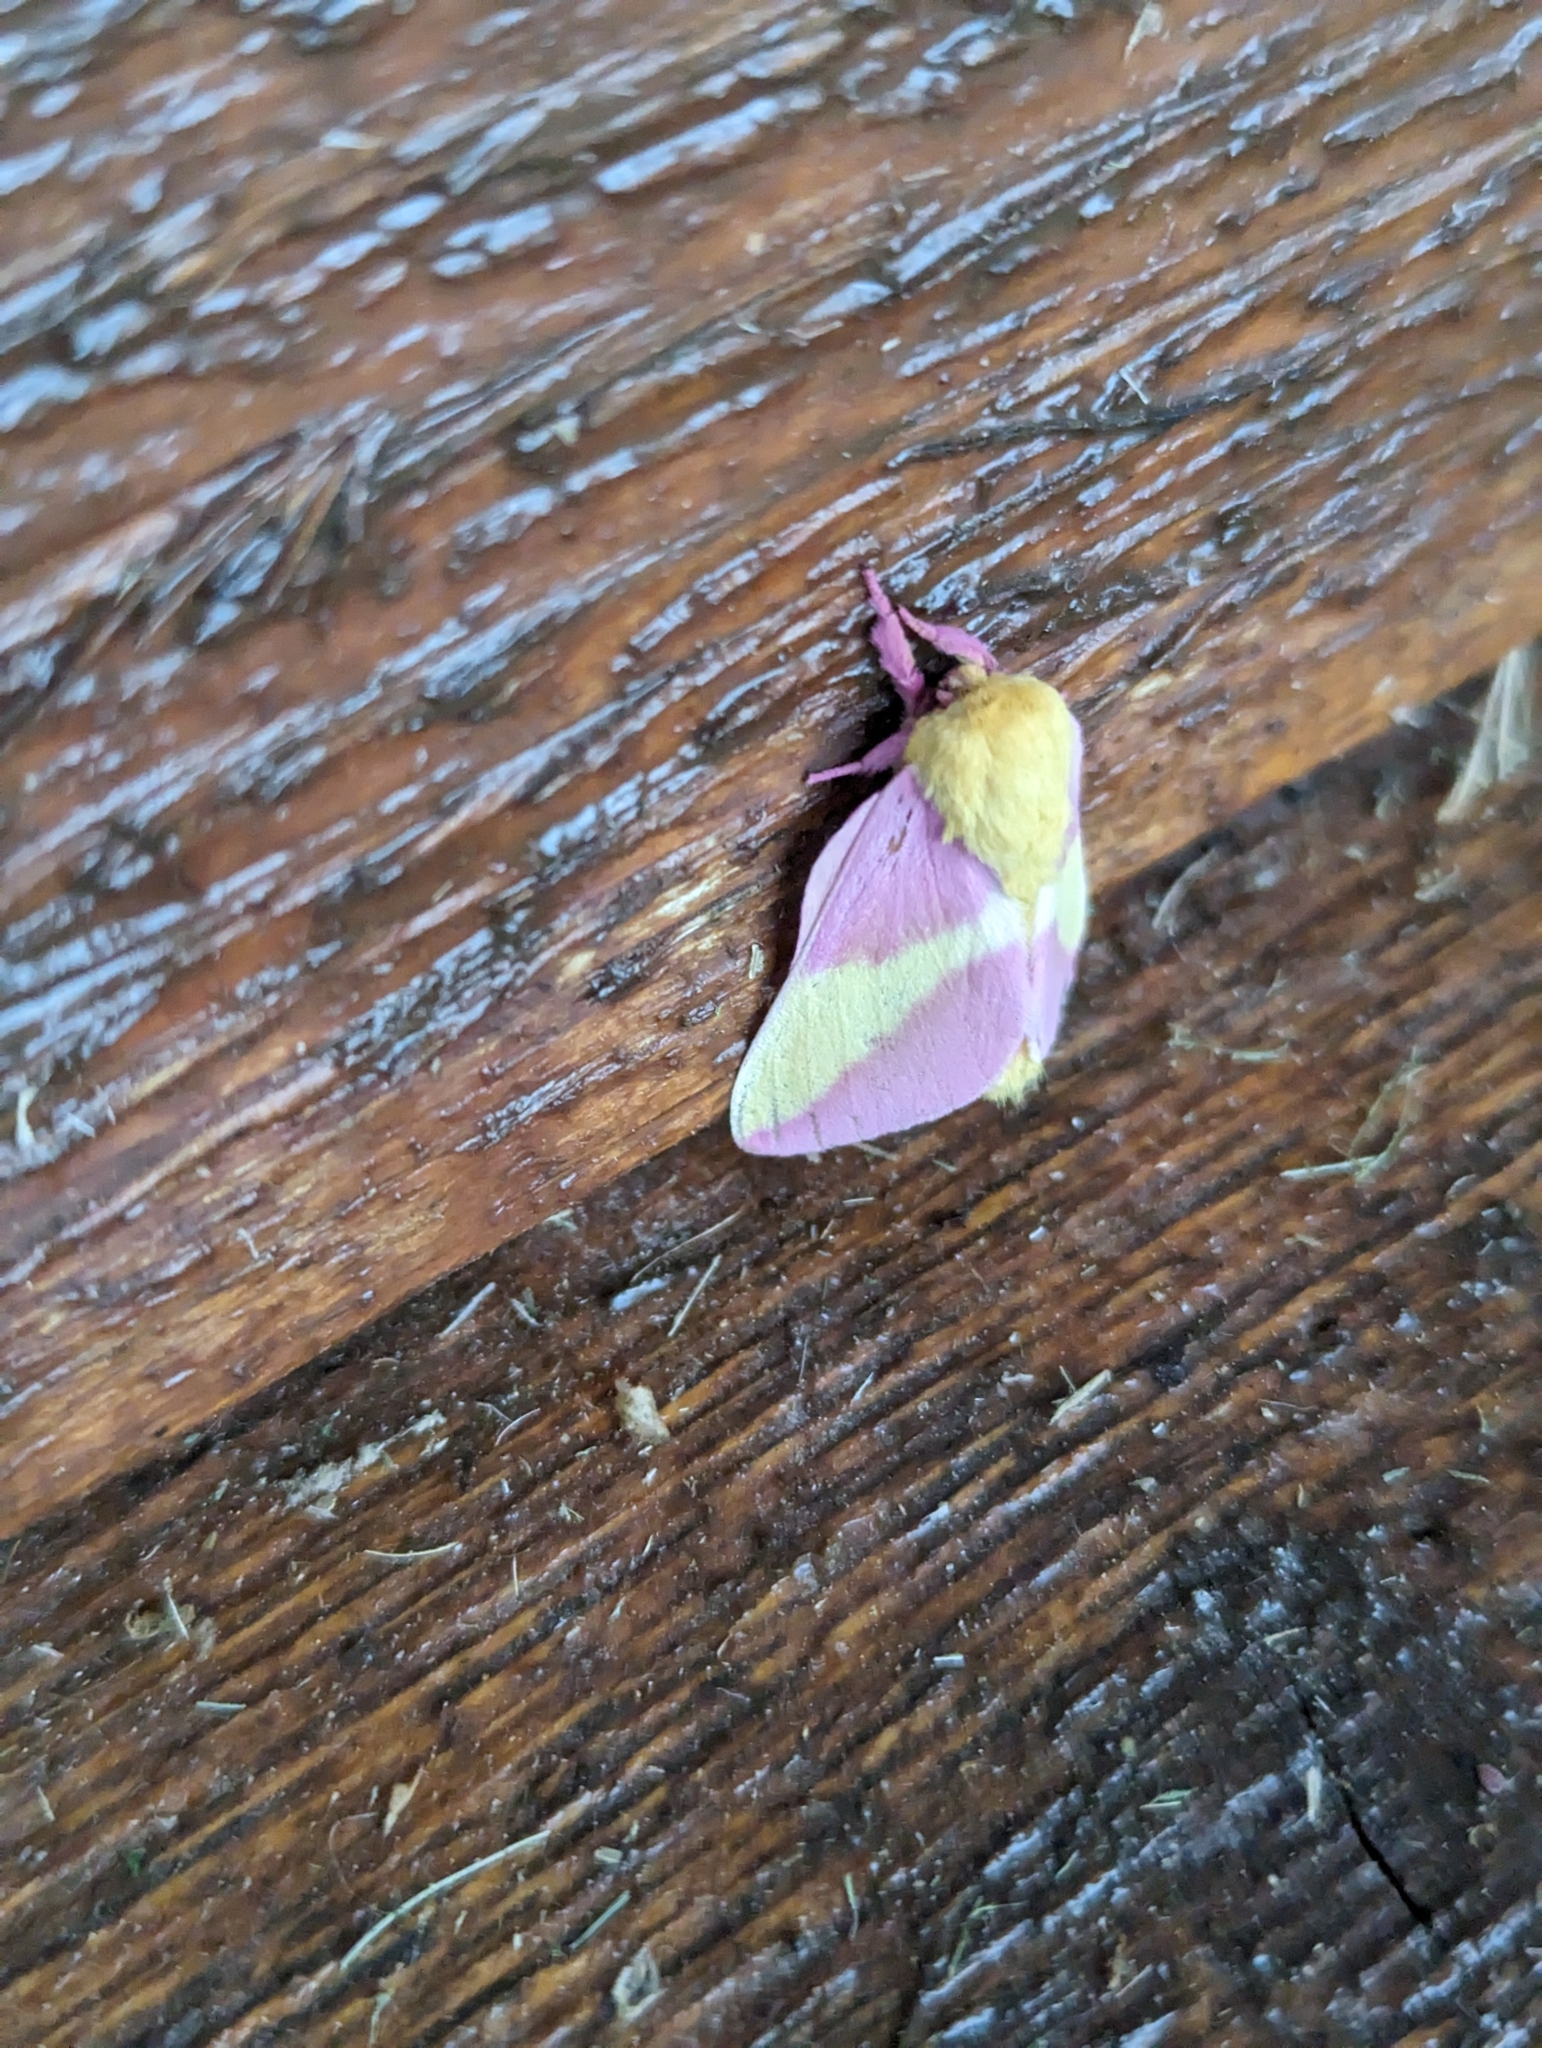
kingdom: Animalia
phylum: Arthropoda
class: Insecta
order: Lepidoptera
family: Saturniidae
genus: Dryocampa
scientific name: Dryocampa rubicunda
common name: Rosy maple moth
